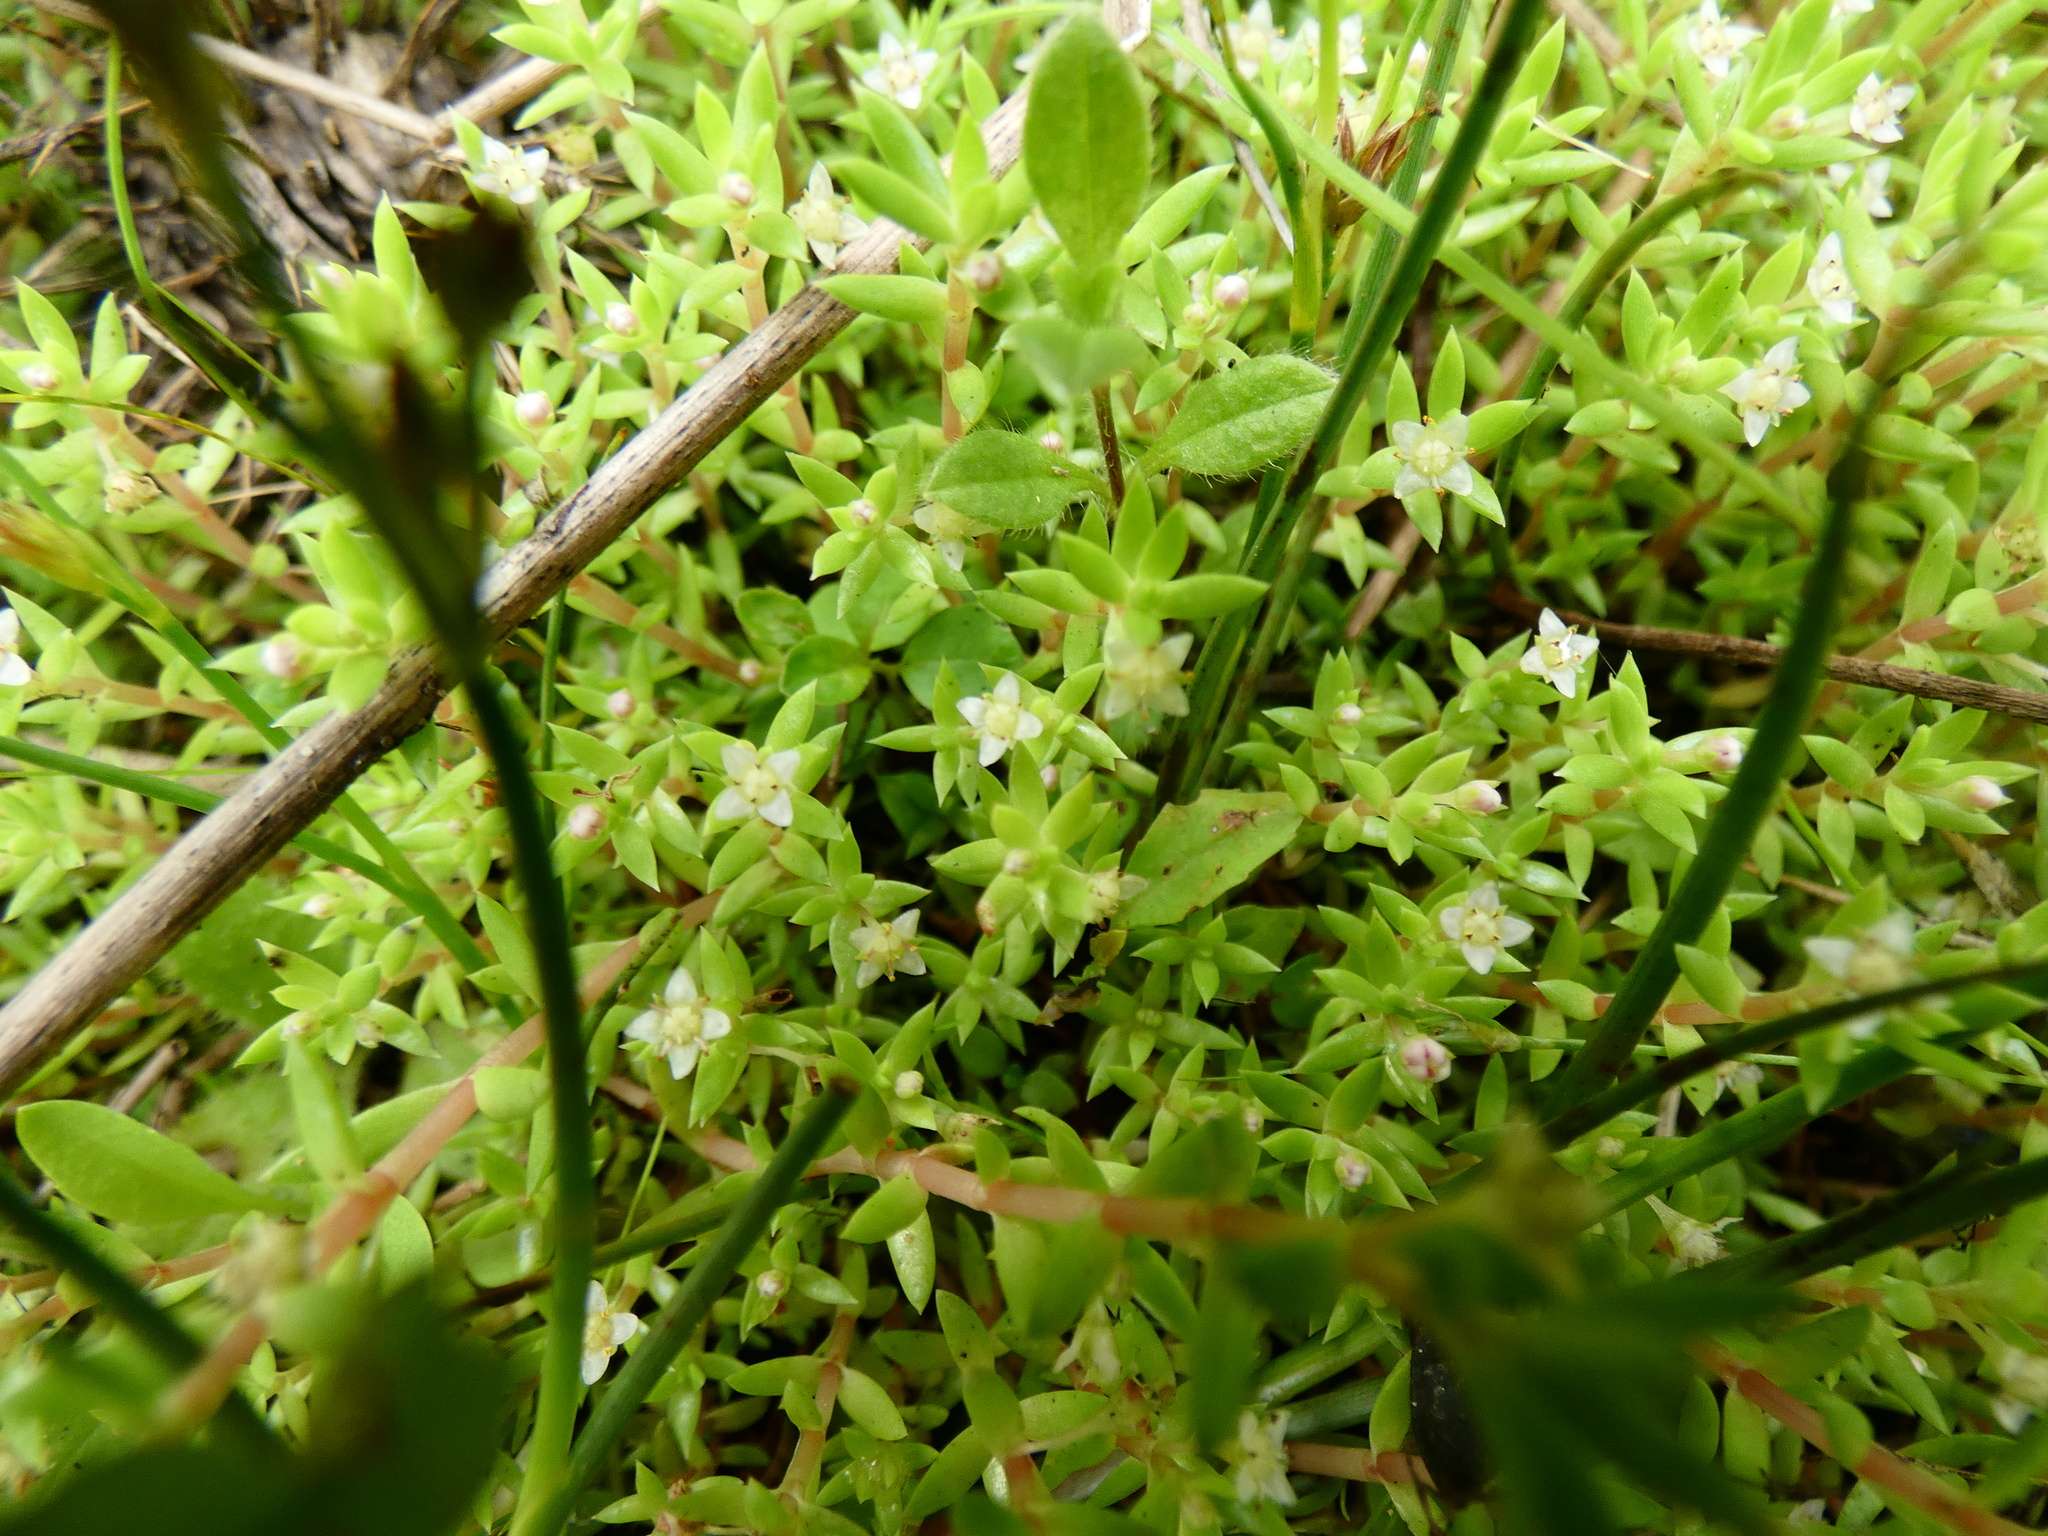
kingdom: Plantae
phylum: Tracheophyta
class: Magnoliopsida
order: Saxifragales
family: Crassulaceae
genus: Crassula
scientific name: Crassula helmsii
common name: New zealand pigmyweed
